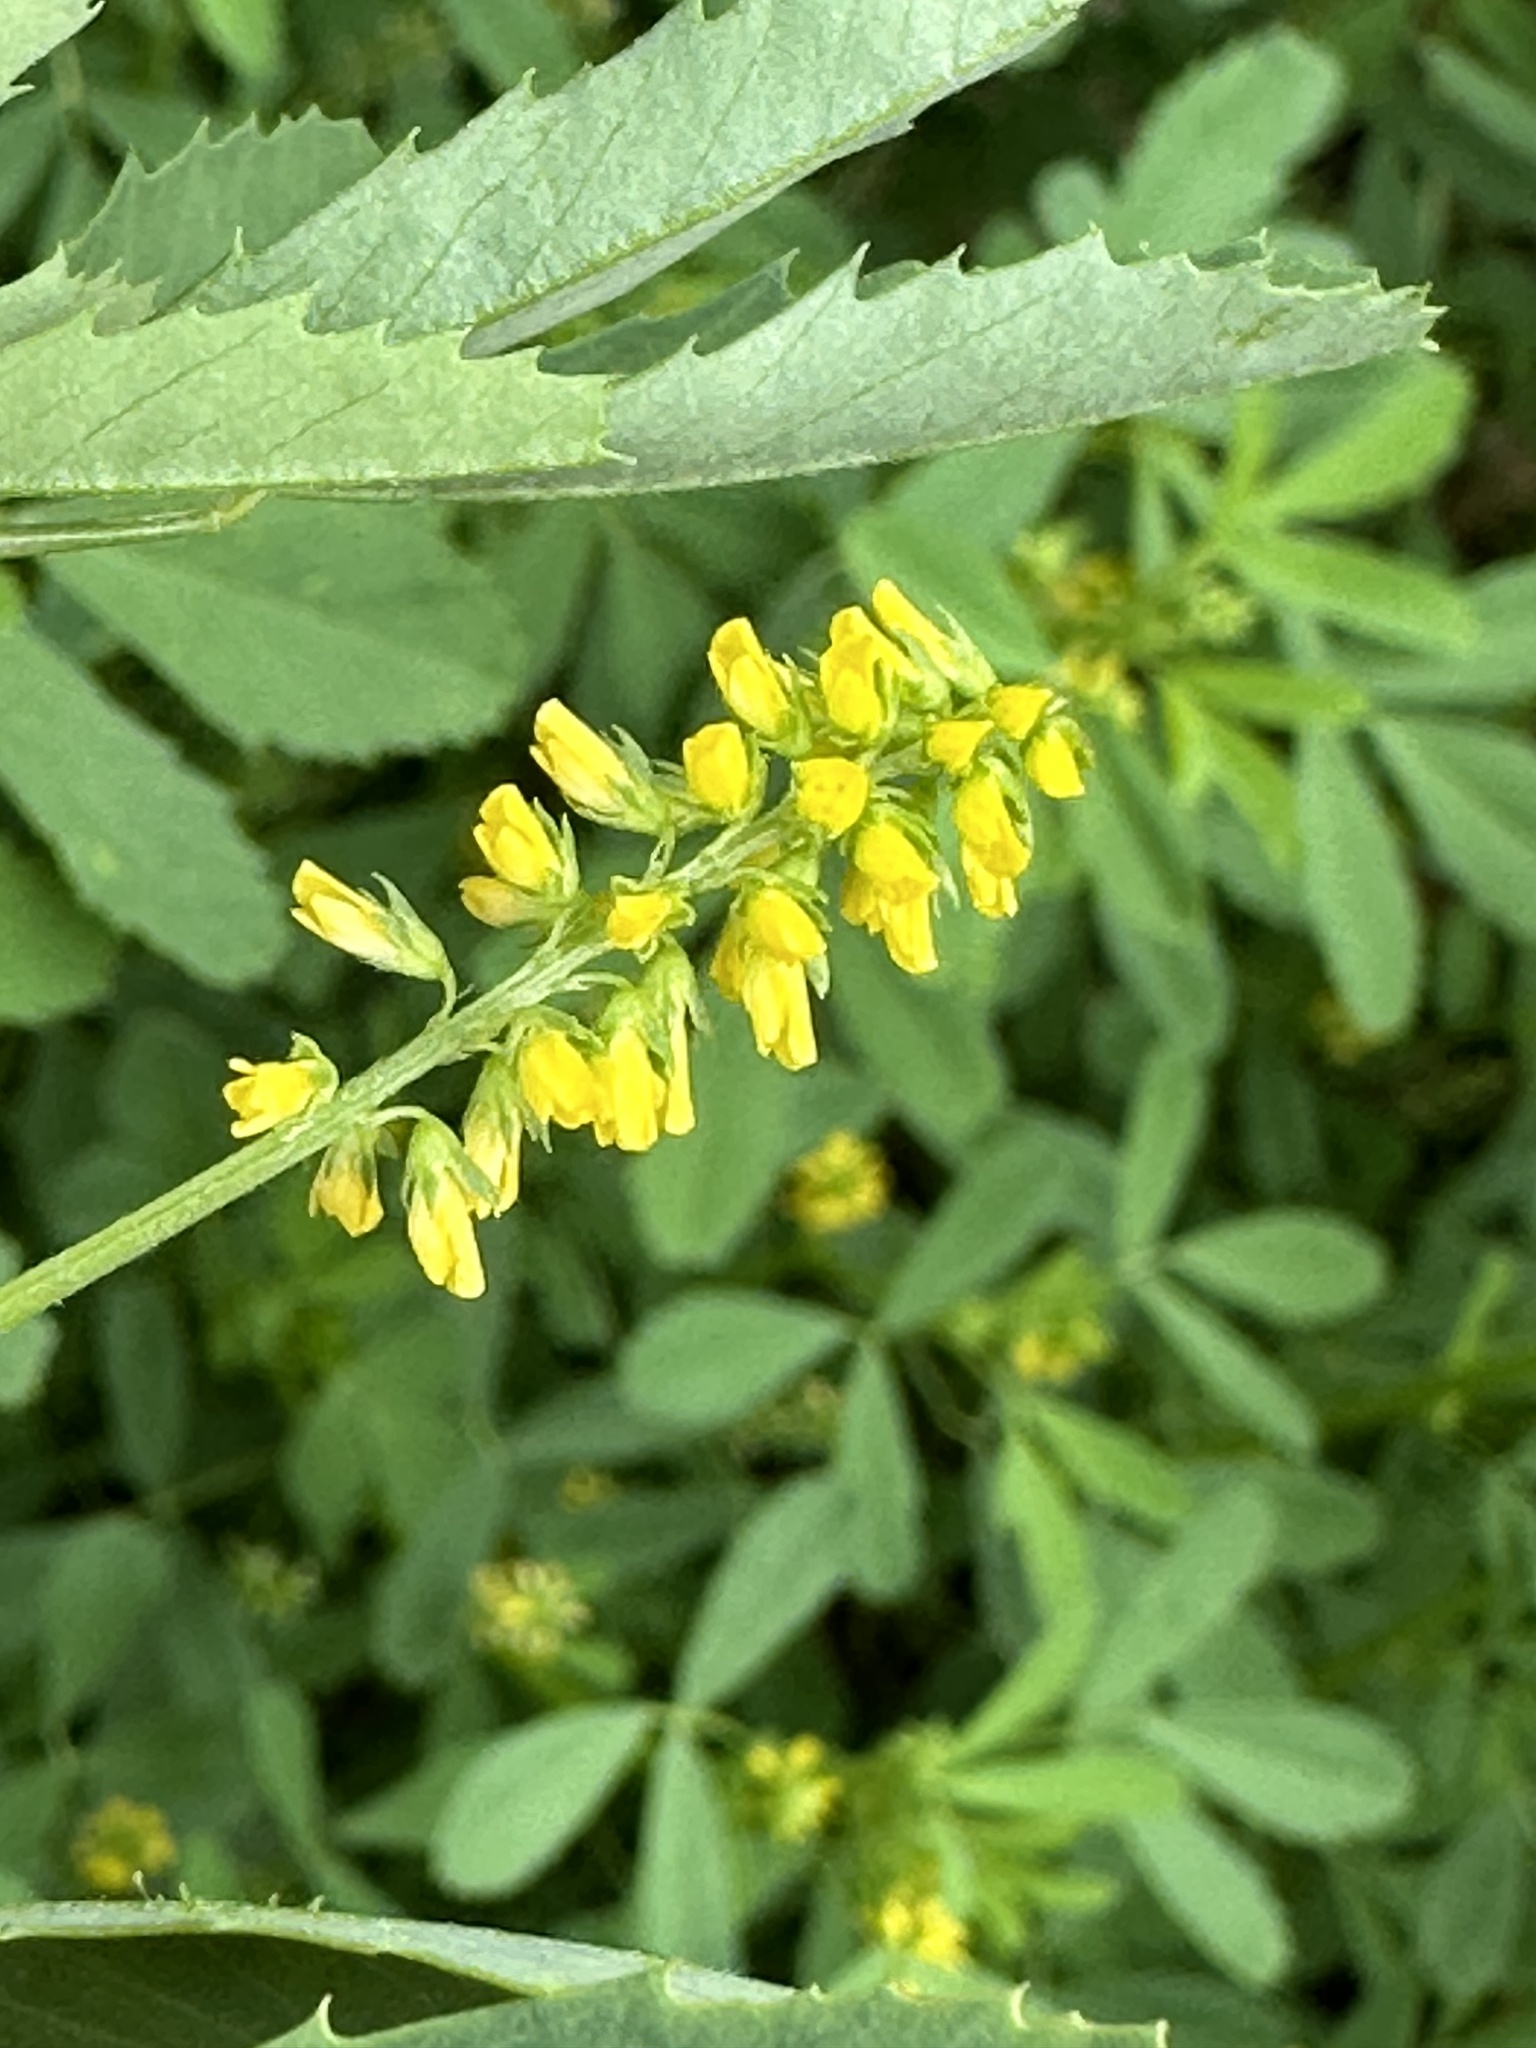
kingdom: Plantae
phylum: Tracheophyta
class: Magnoliopsida
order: Fabales
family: Fabaceae
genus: Melilotus
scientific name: Melilotus indicus
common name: Small melilot
